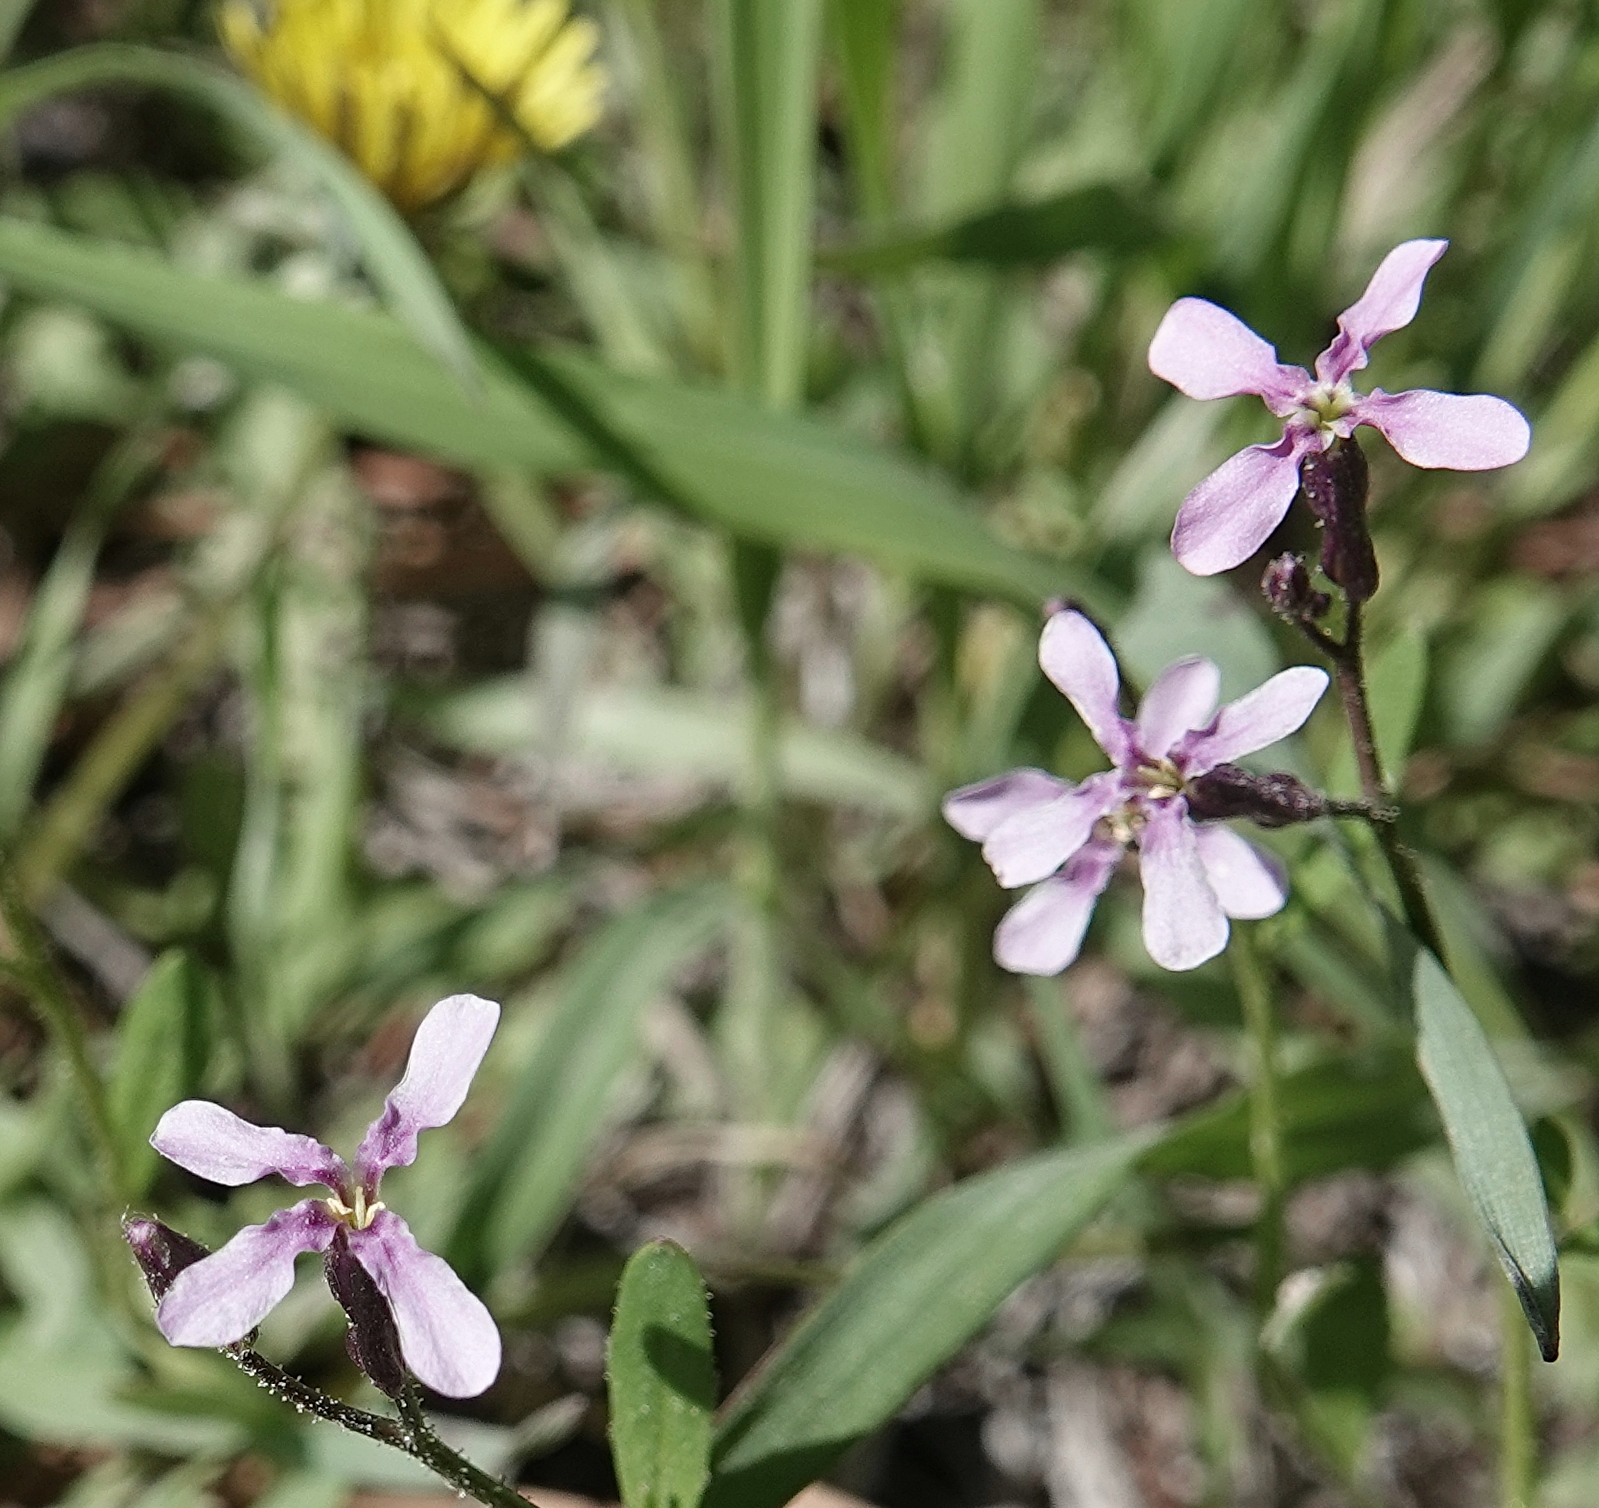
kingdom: Plantae
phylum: Tracheophyta
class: Magnoliopsida
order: Brassicales
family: Brassicaceae
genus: Chorispora
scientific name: Chorispora tenella
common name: Crossflower
